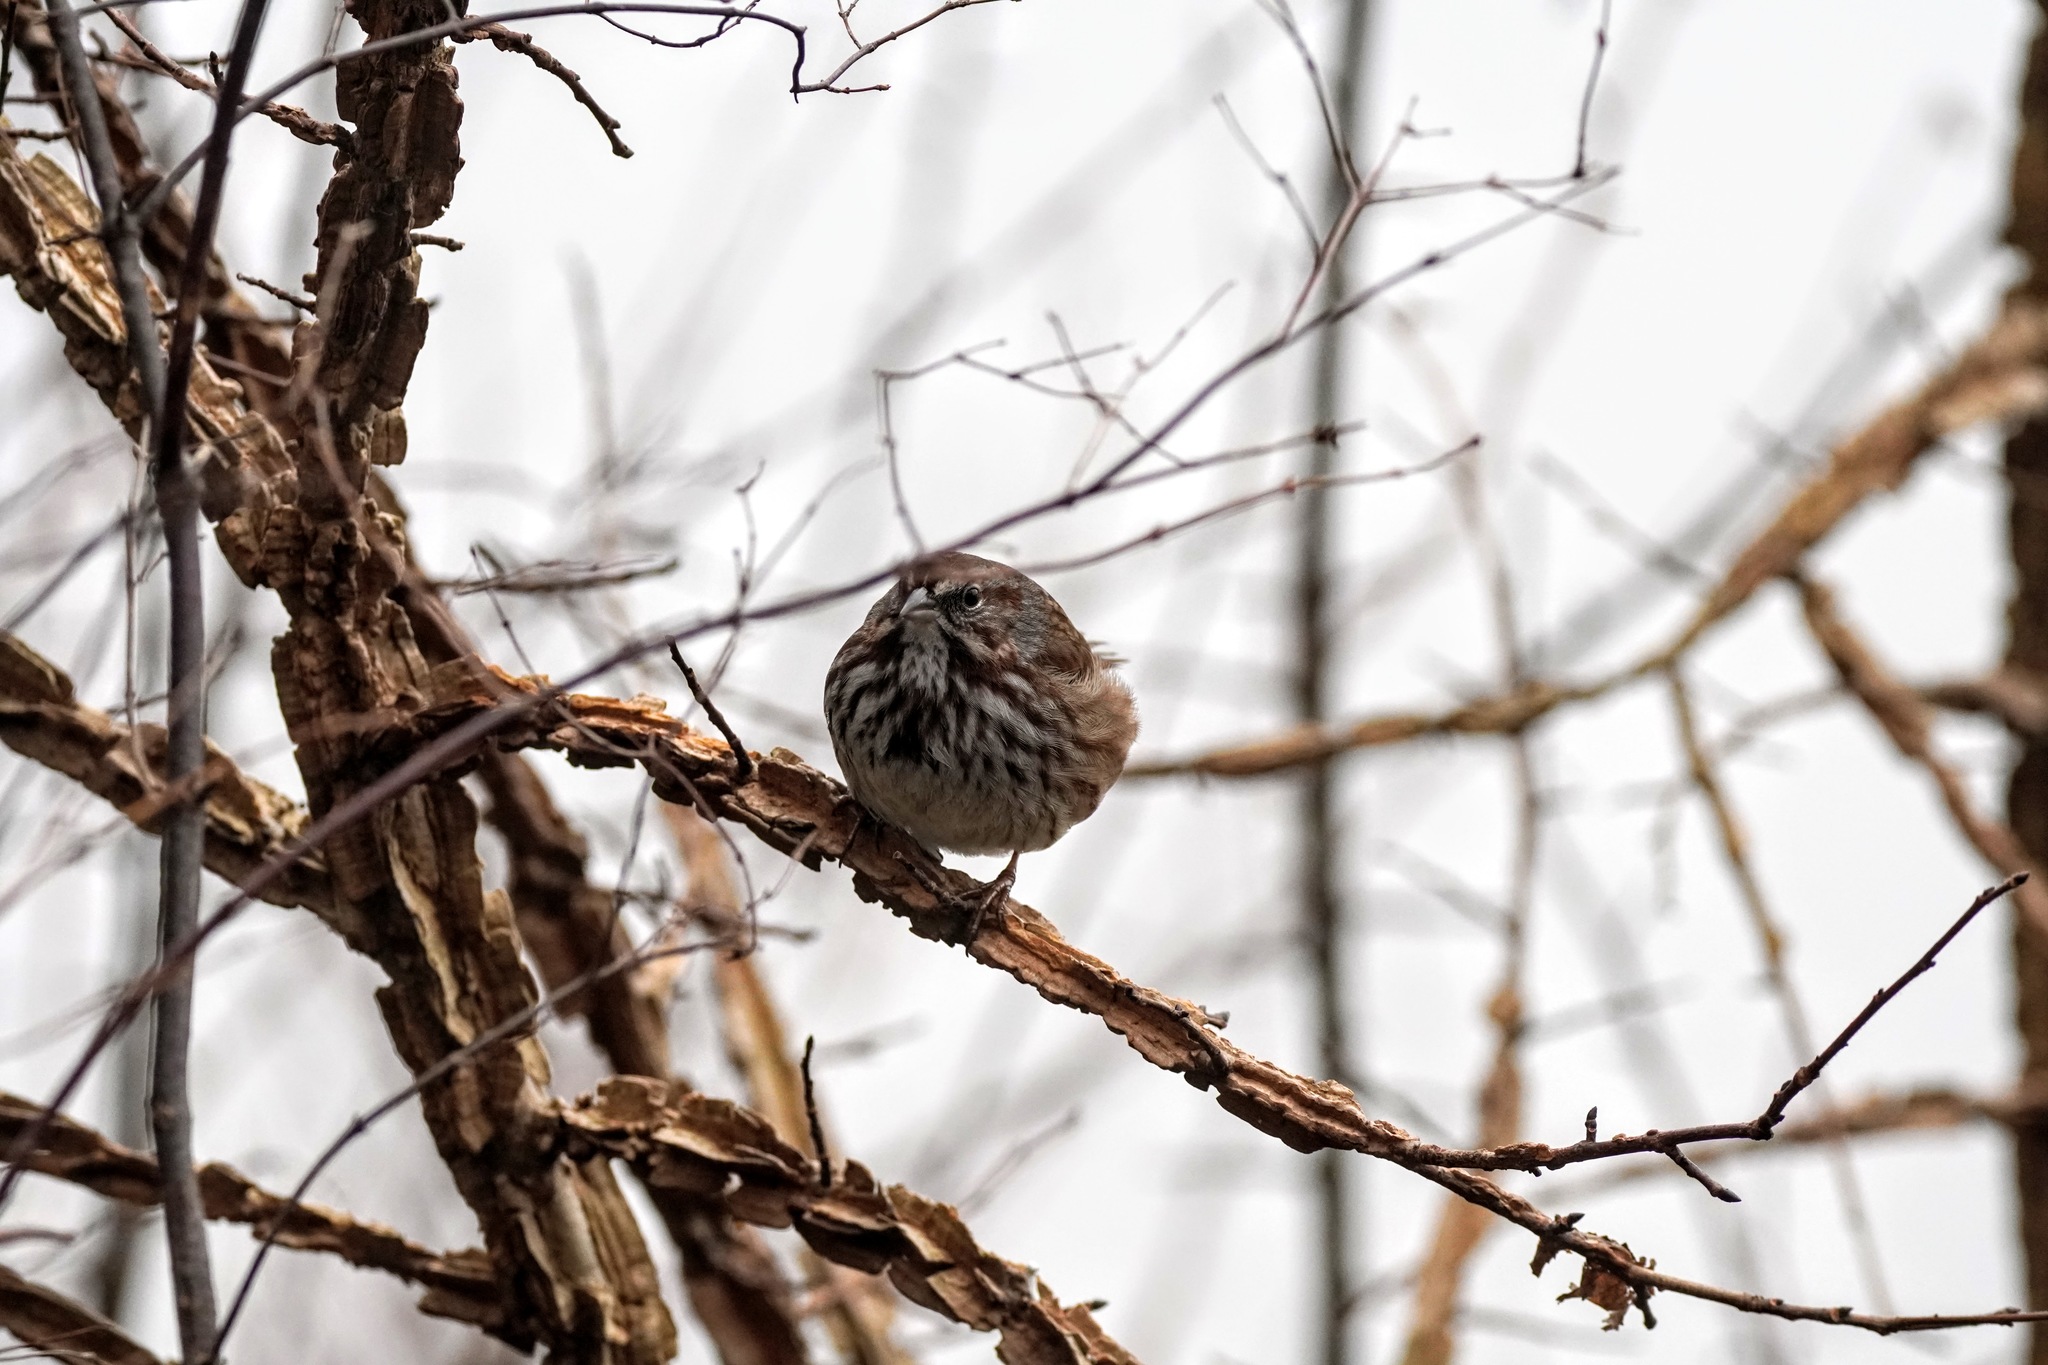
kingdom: Animalia
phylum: Chordata
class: Aves
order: Passeriformes
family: Passerellidae
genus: Melospiza
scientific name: Melospiza melodia
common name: Song sparrow
